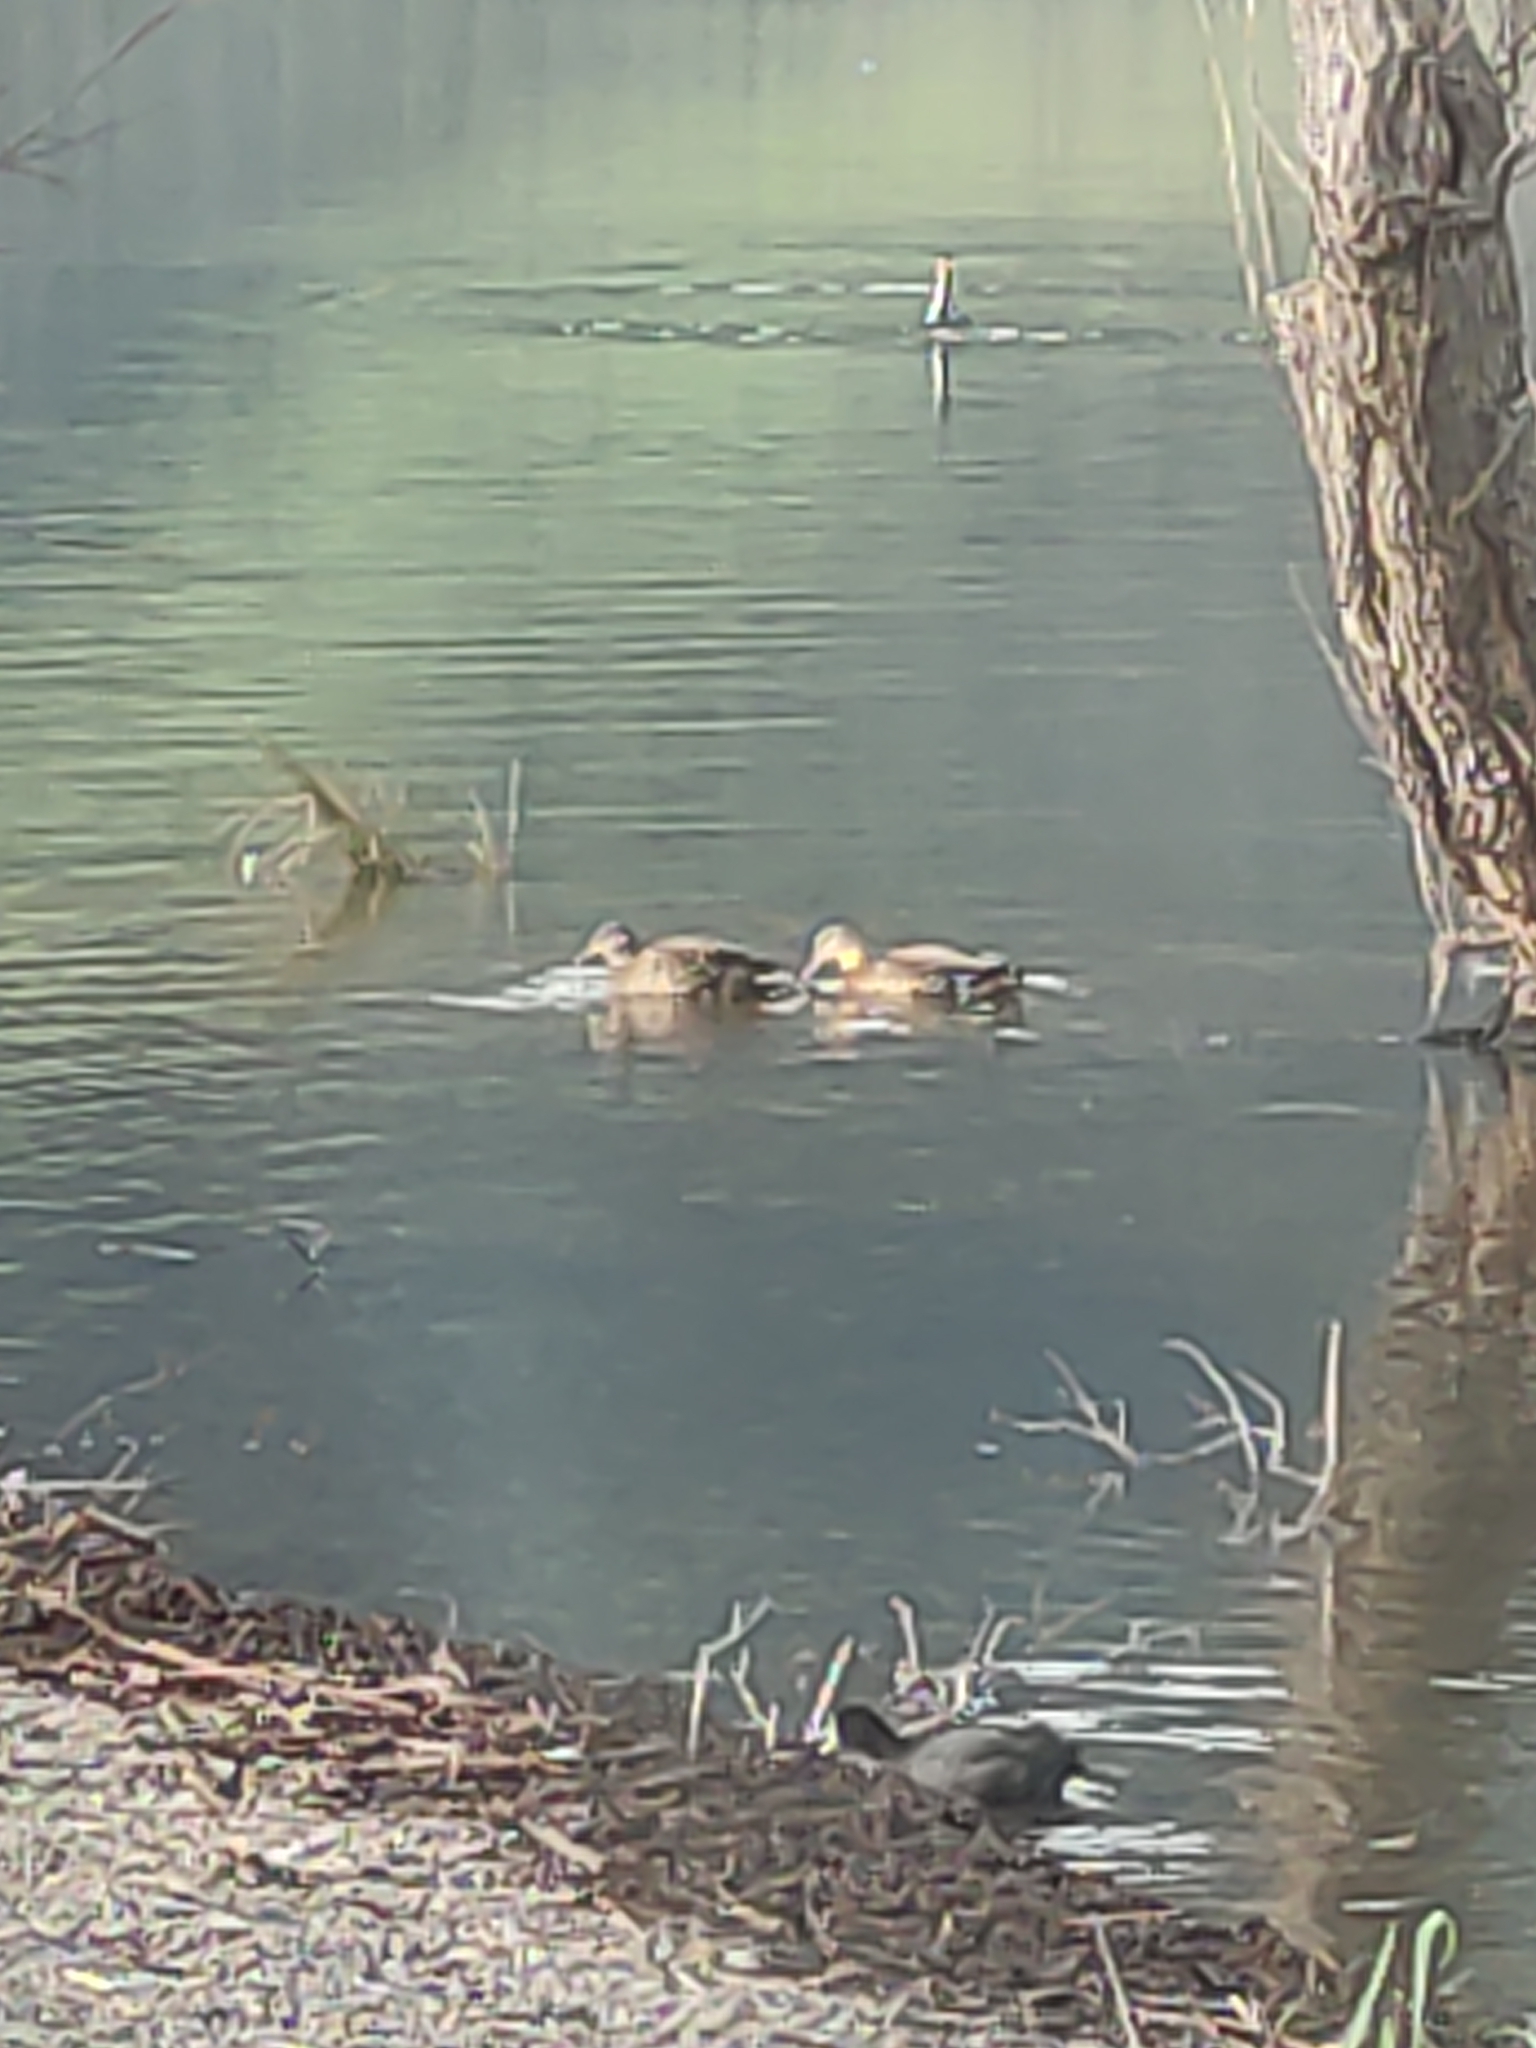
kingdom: Animalia
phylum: Chordata
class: Aves
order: Anseriformes
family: Anatidae
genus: Anas
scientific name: Anas platyrhynchos
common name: Mallard
